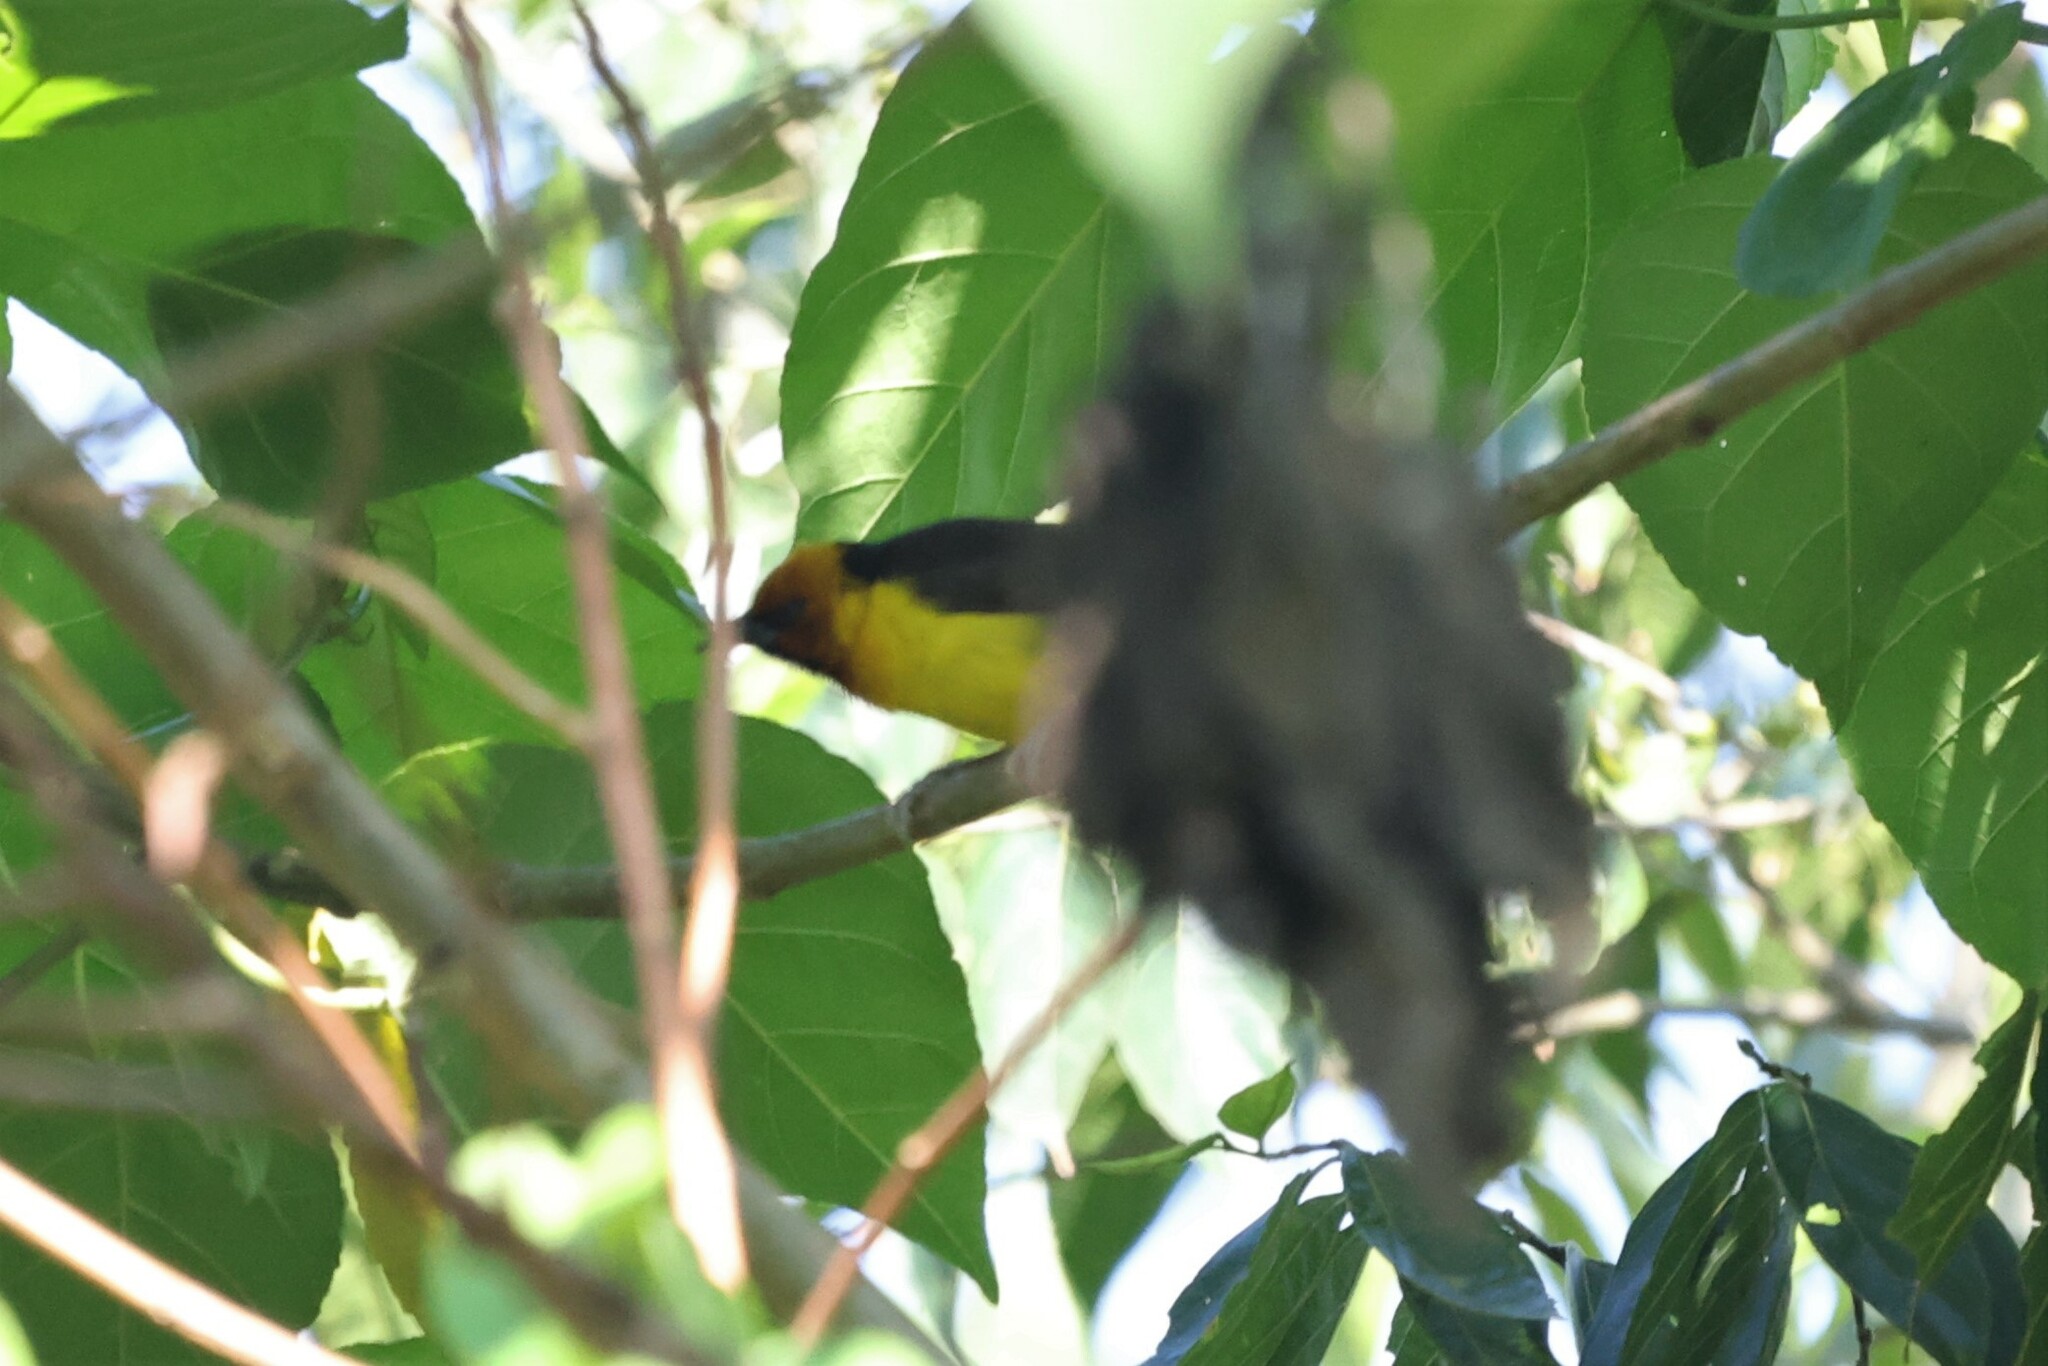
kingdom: Animalia
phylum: Chordata
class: Aves
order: Passeriformes
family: Ploceidae
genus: Ploceus
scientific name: Ploceus nigricollis
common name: Black-necked weaver
